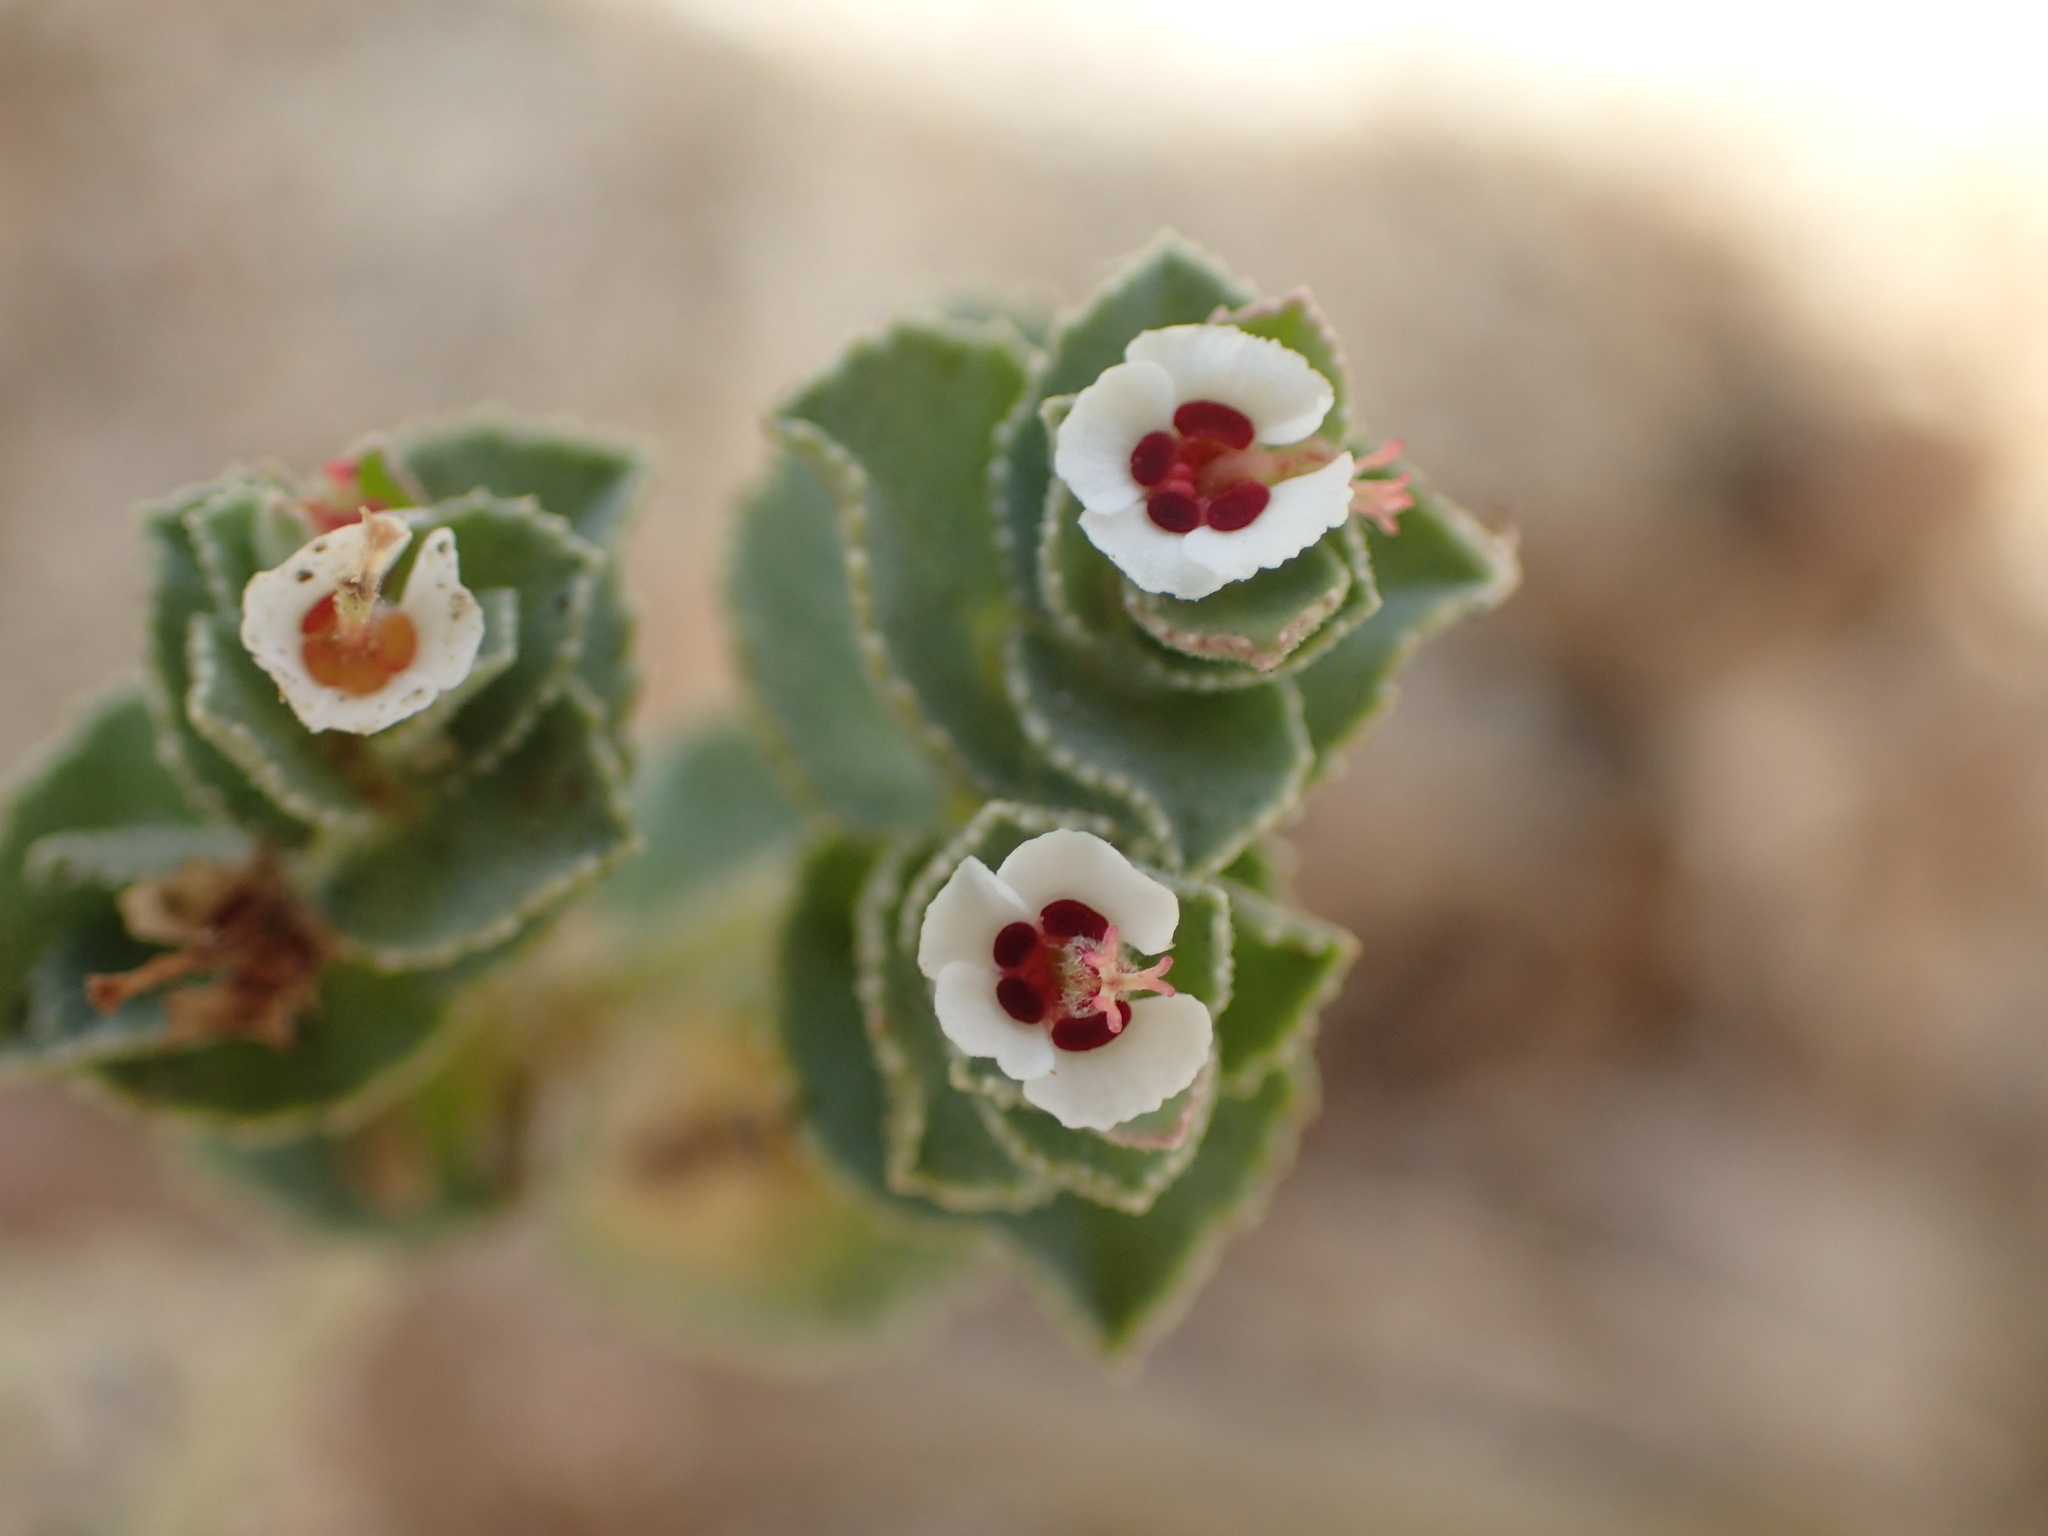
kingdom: Plantae
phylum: Tracheophyta
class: Magnoliopsida
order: Malpighiales
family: Euphorbiaceae
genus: Euphorbia
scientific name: Euphorbia leucophylla
